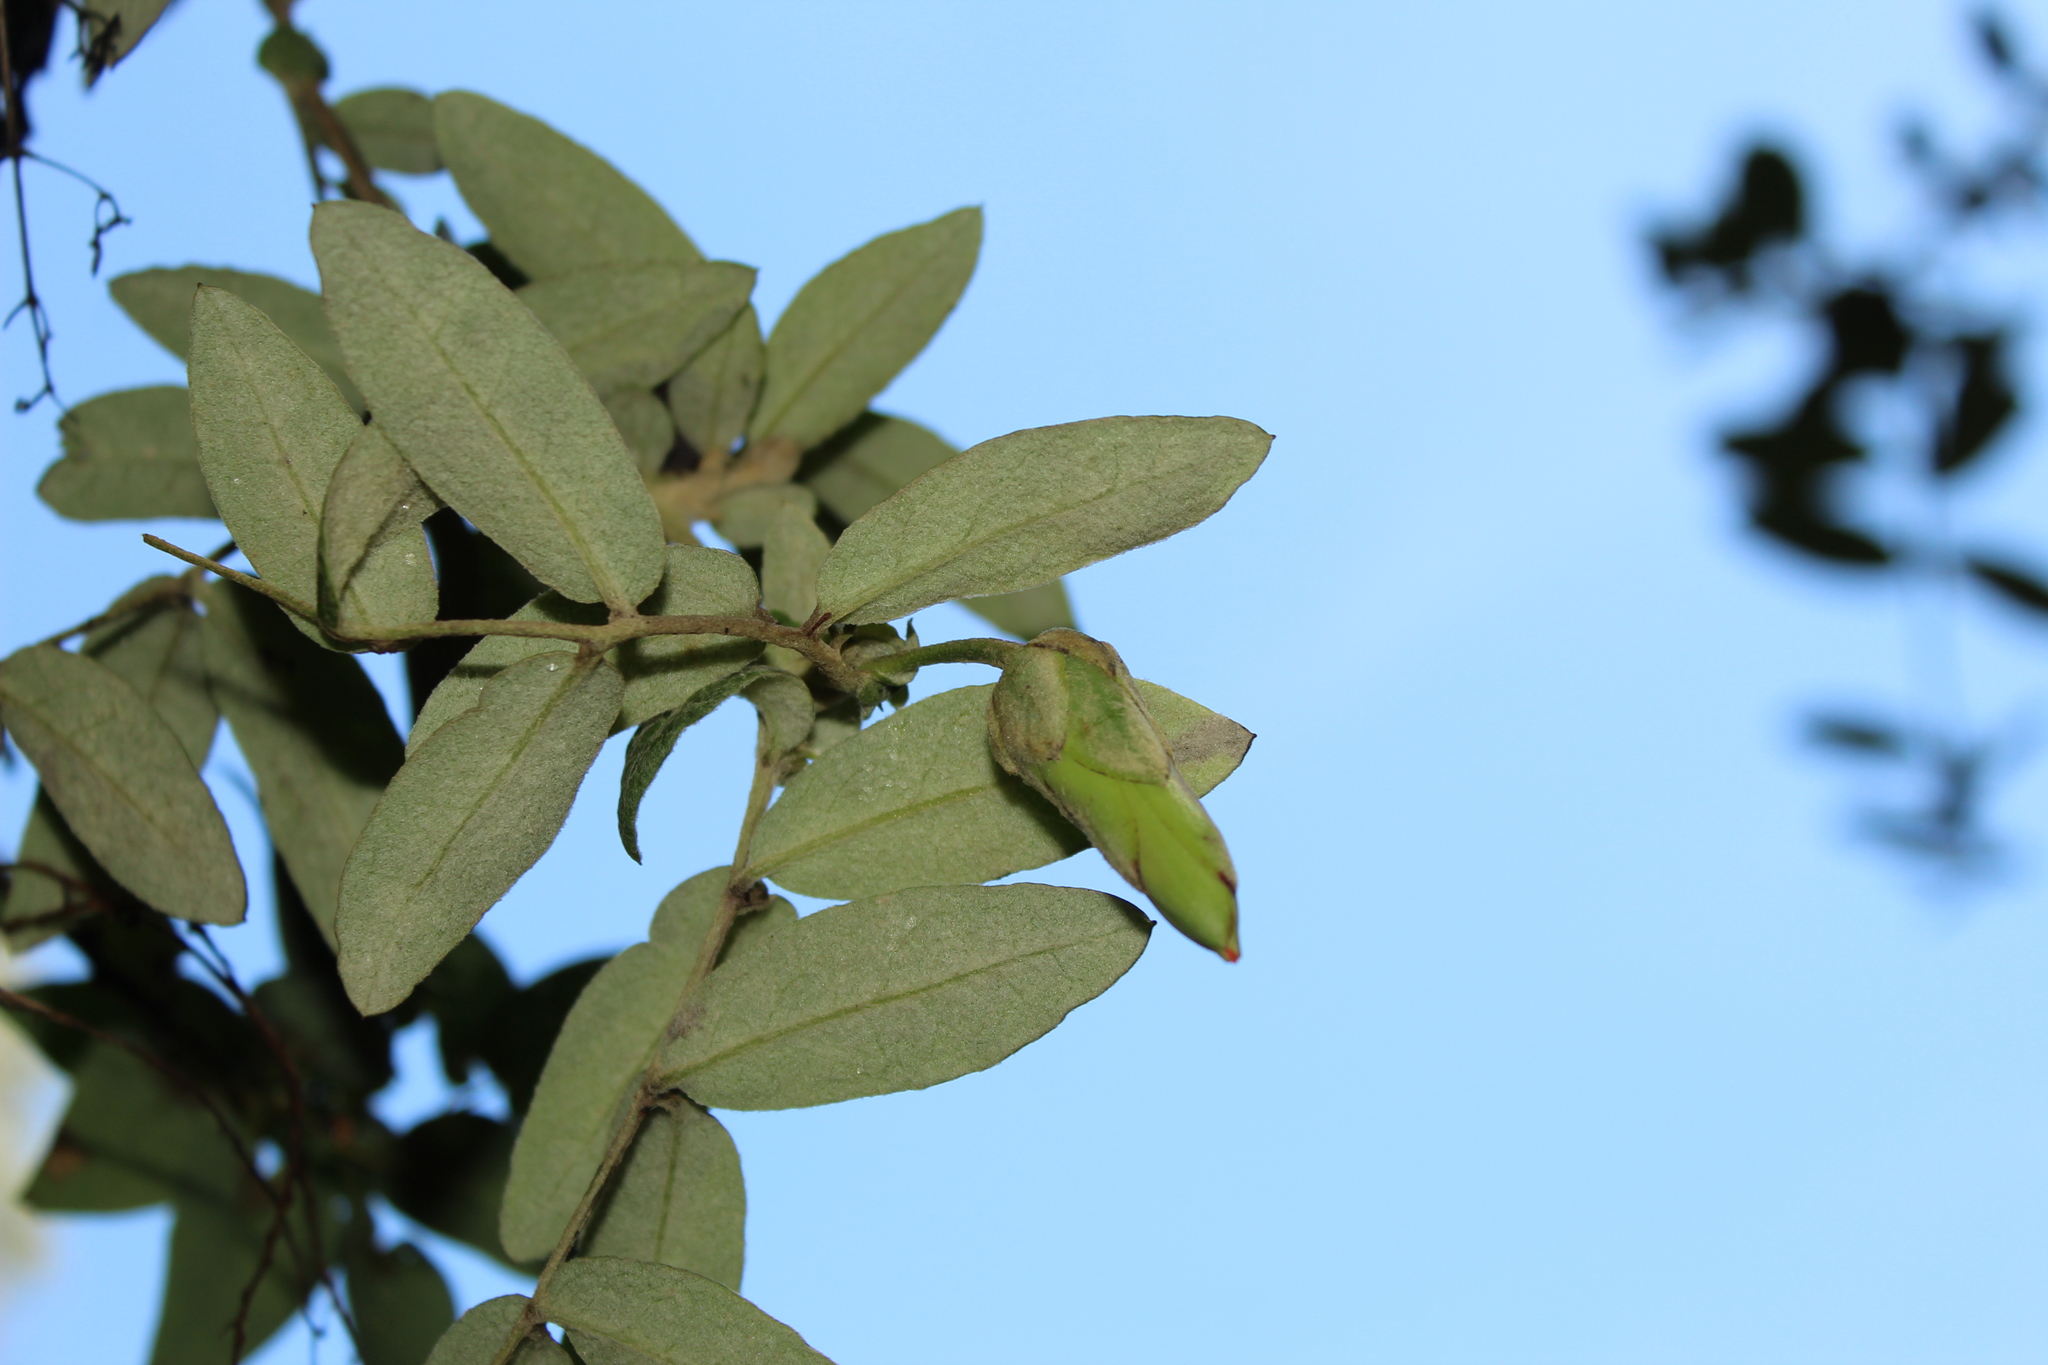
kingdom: Plantae
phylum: Tracheophyta
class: Magnoliopsida
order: Asterales
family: Asteraceae
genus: Mutisia
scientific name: Mutisia clematis
